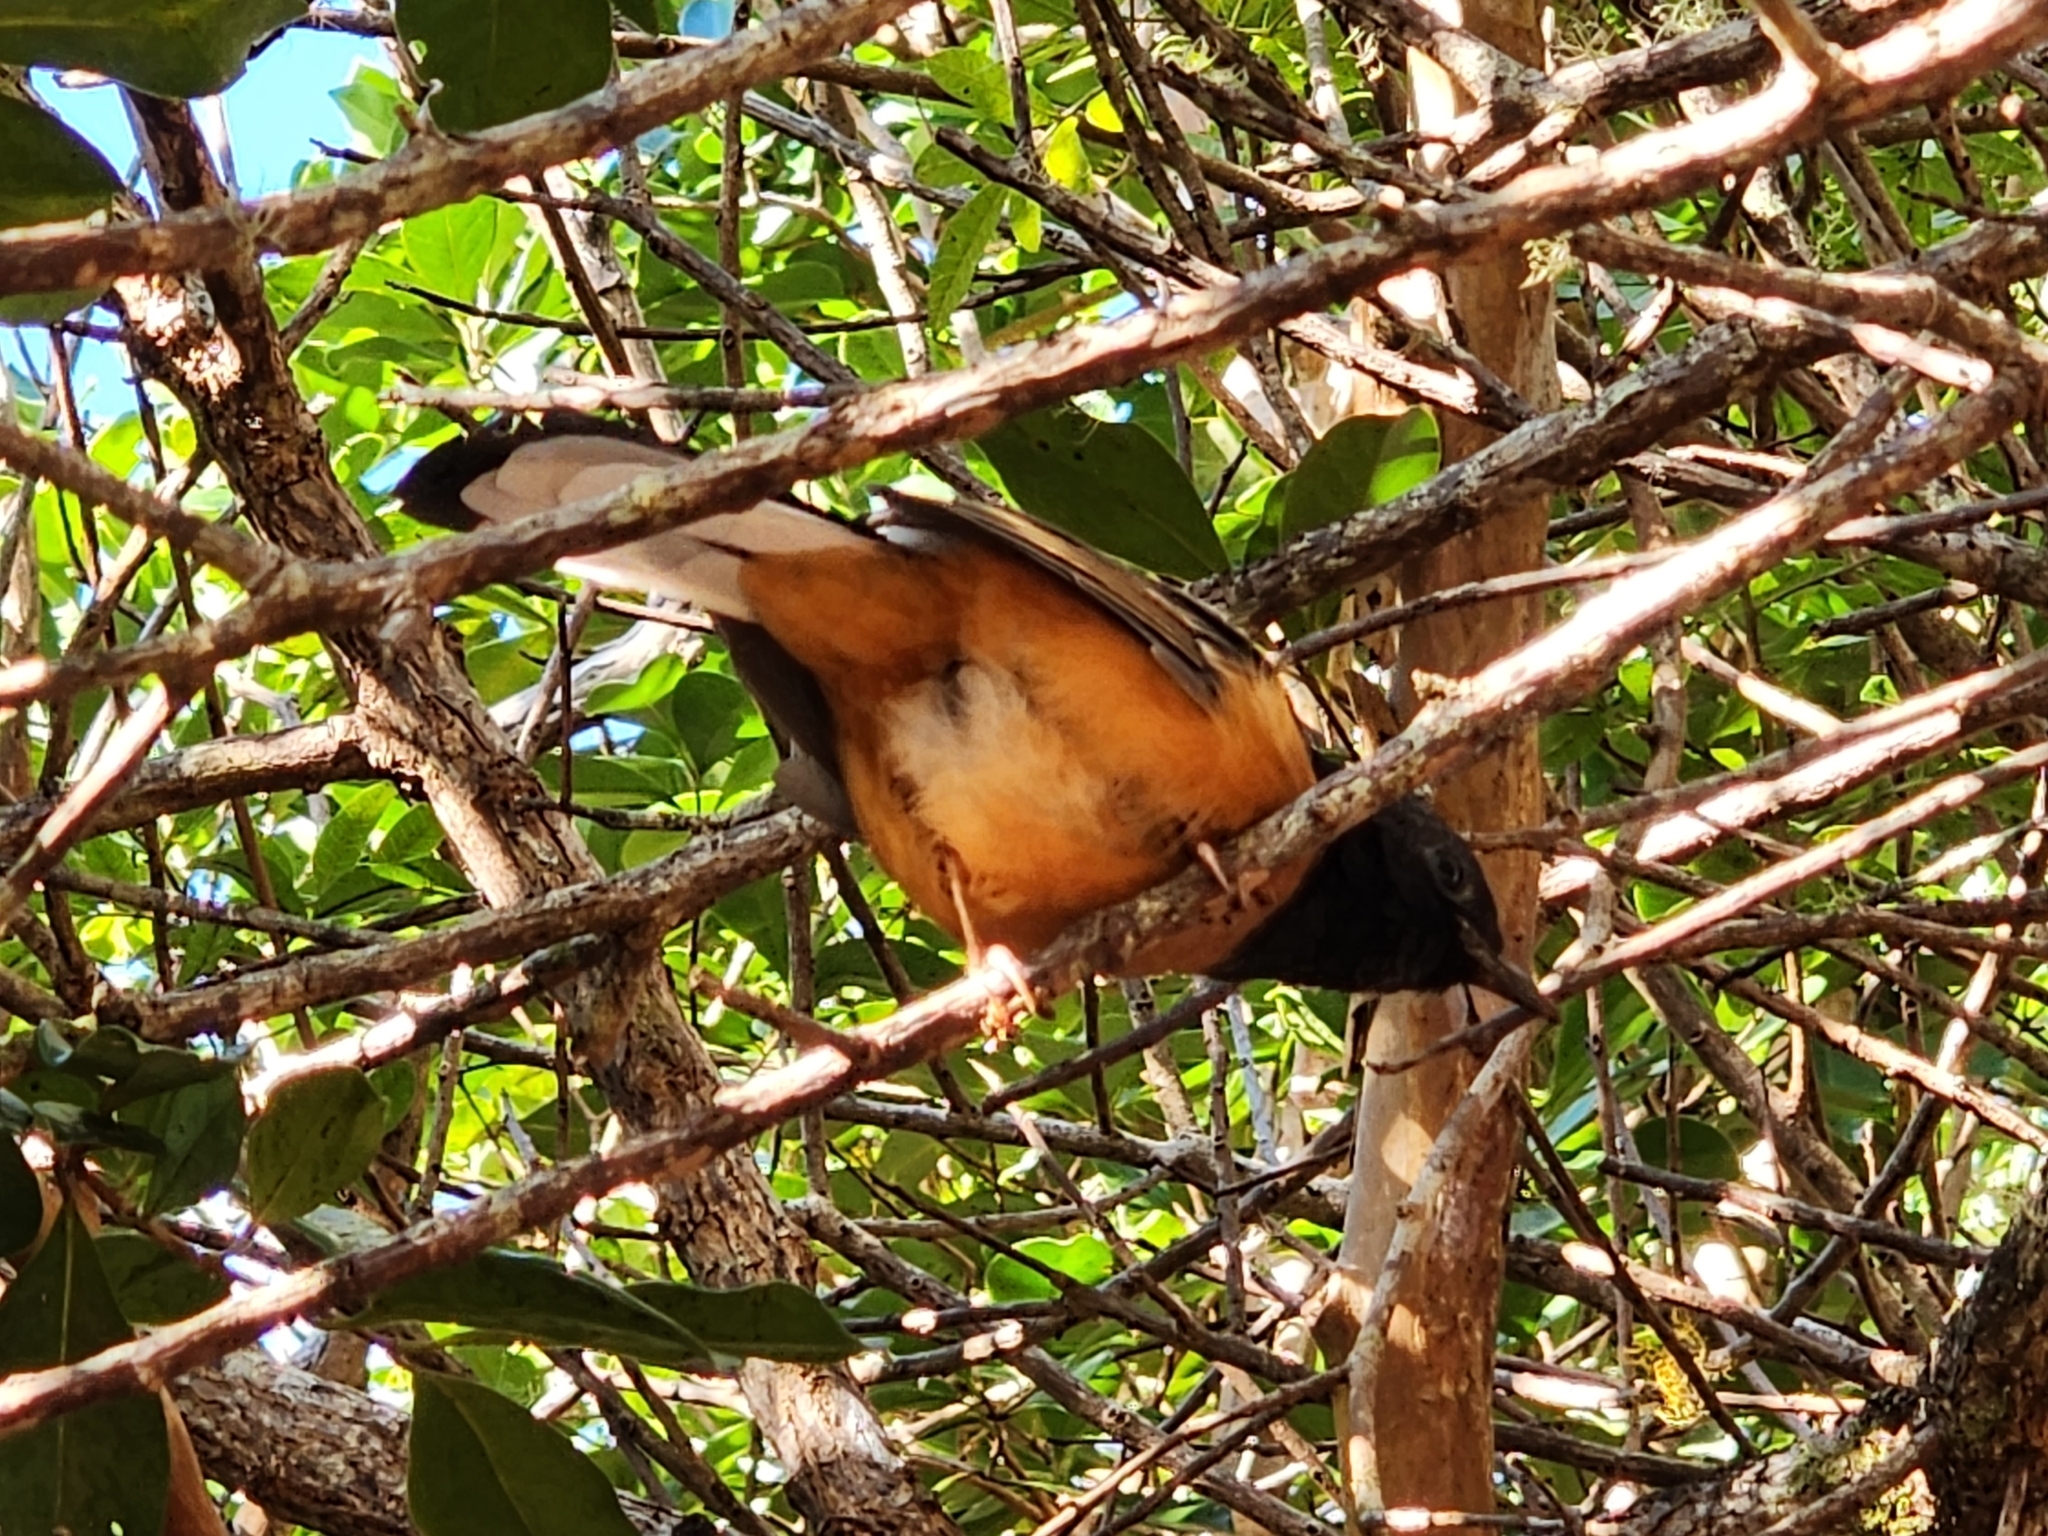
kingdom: Animalia
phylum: Chordata
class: Aves
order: Passeriformes
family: Muscicapidae
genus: Copsychus
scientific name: Copsychus malabaricus
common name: White-rumped shama
